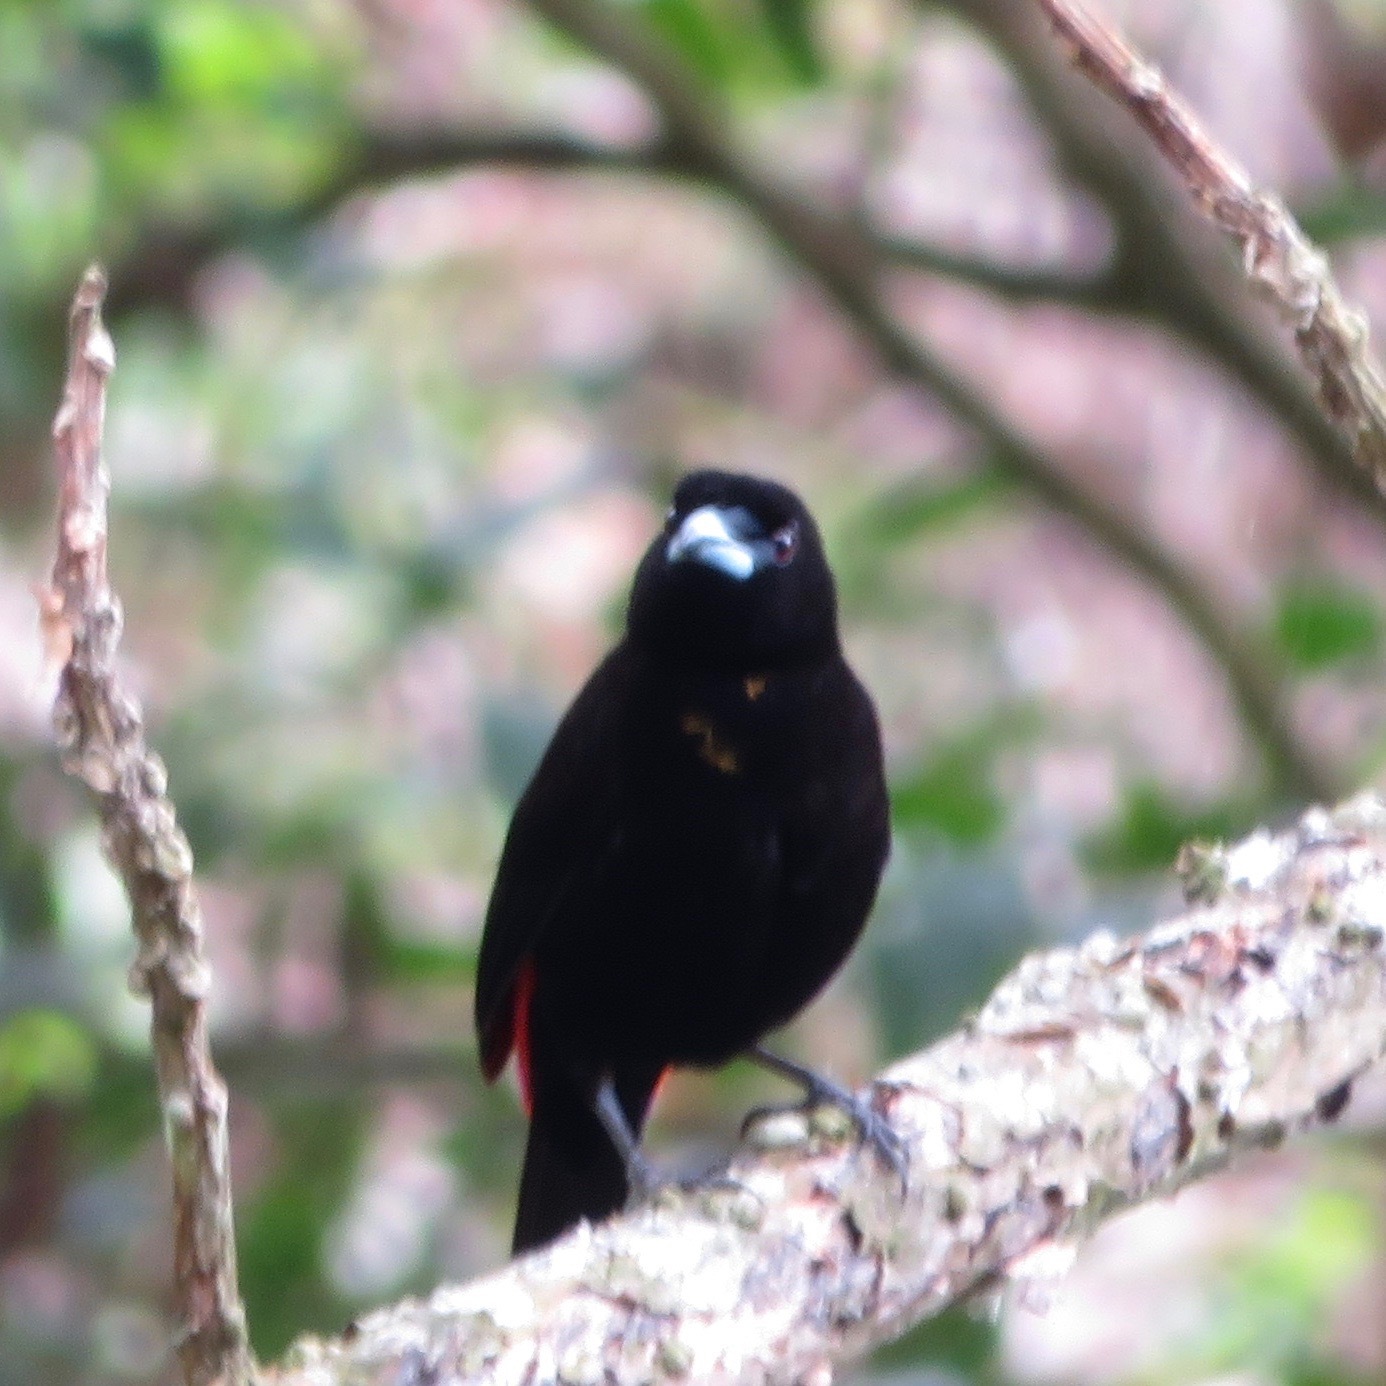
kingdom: Animalia
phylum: Chordata
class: Aves
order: Passeriformes
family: Thraupidae
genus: Ramphocelus
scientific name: Ramphocelus passerinii
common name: Passerini's tanager
